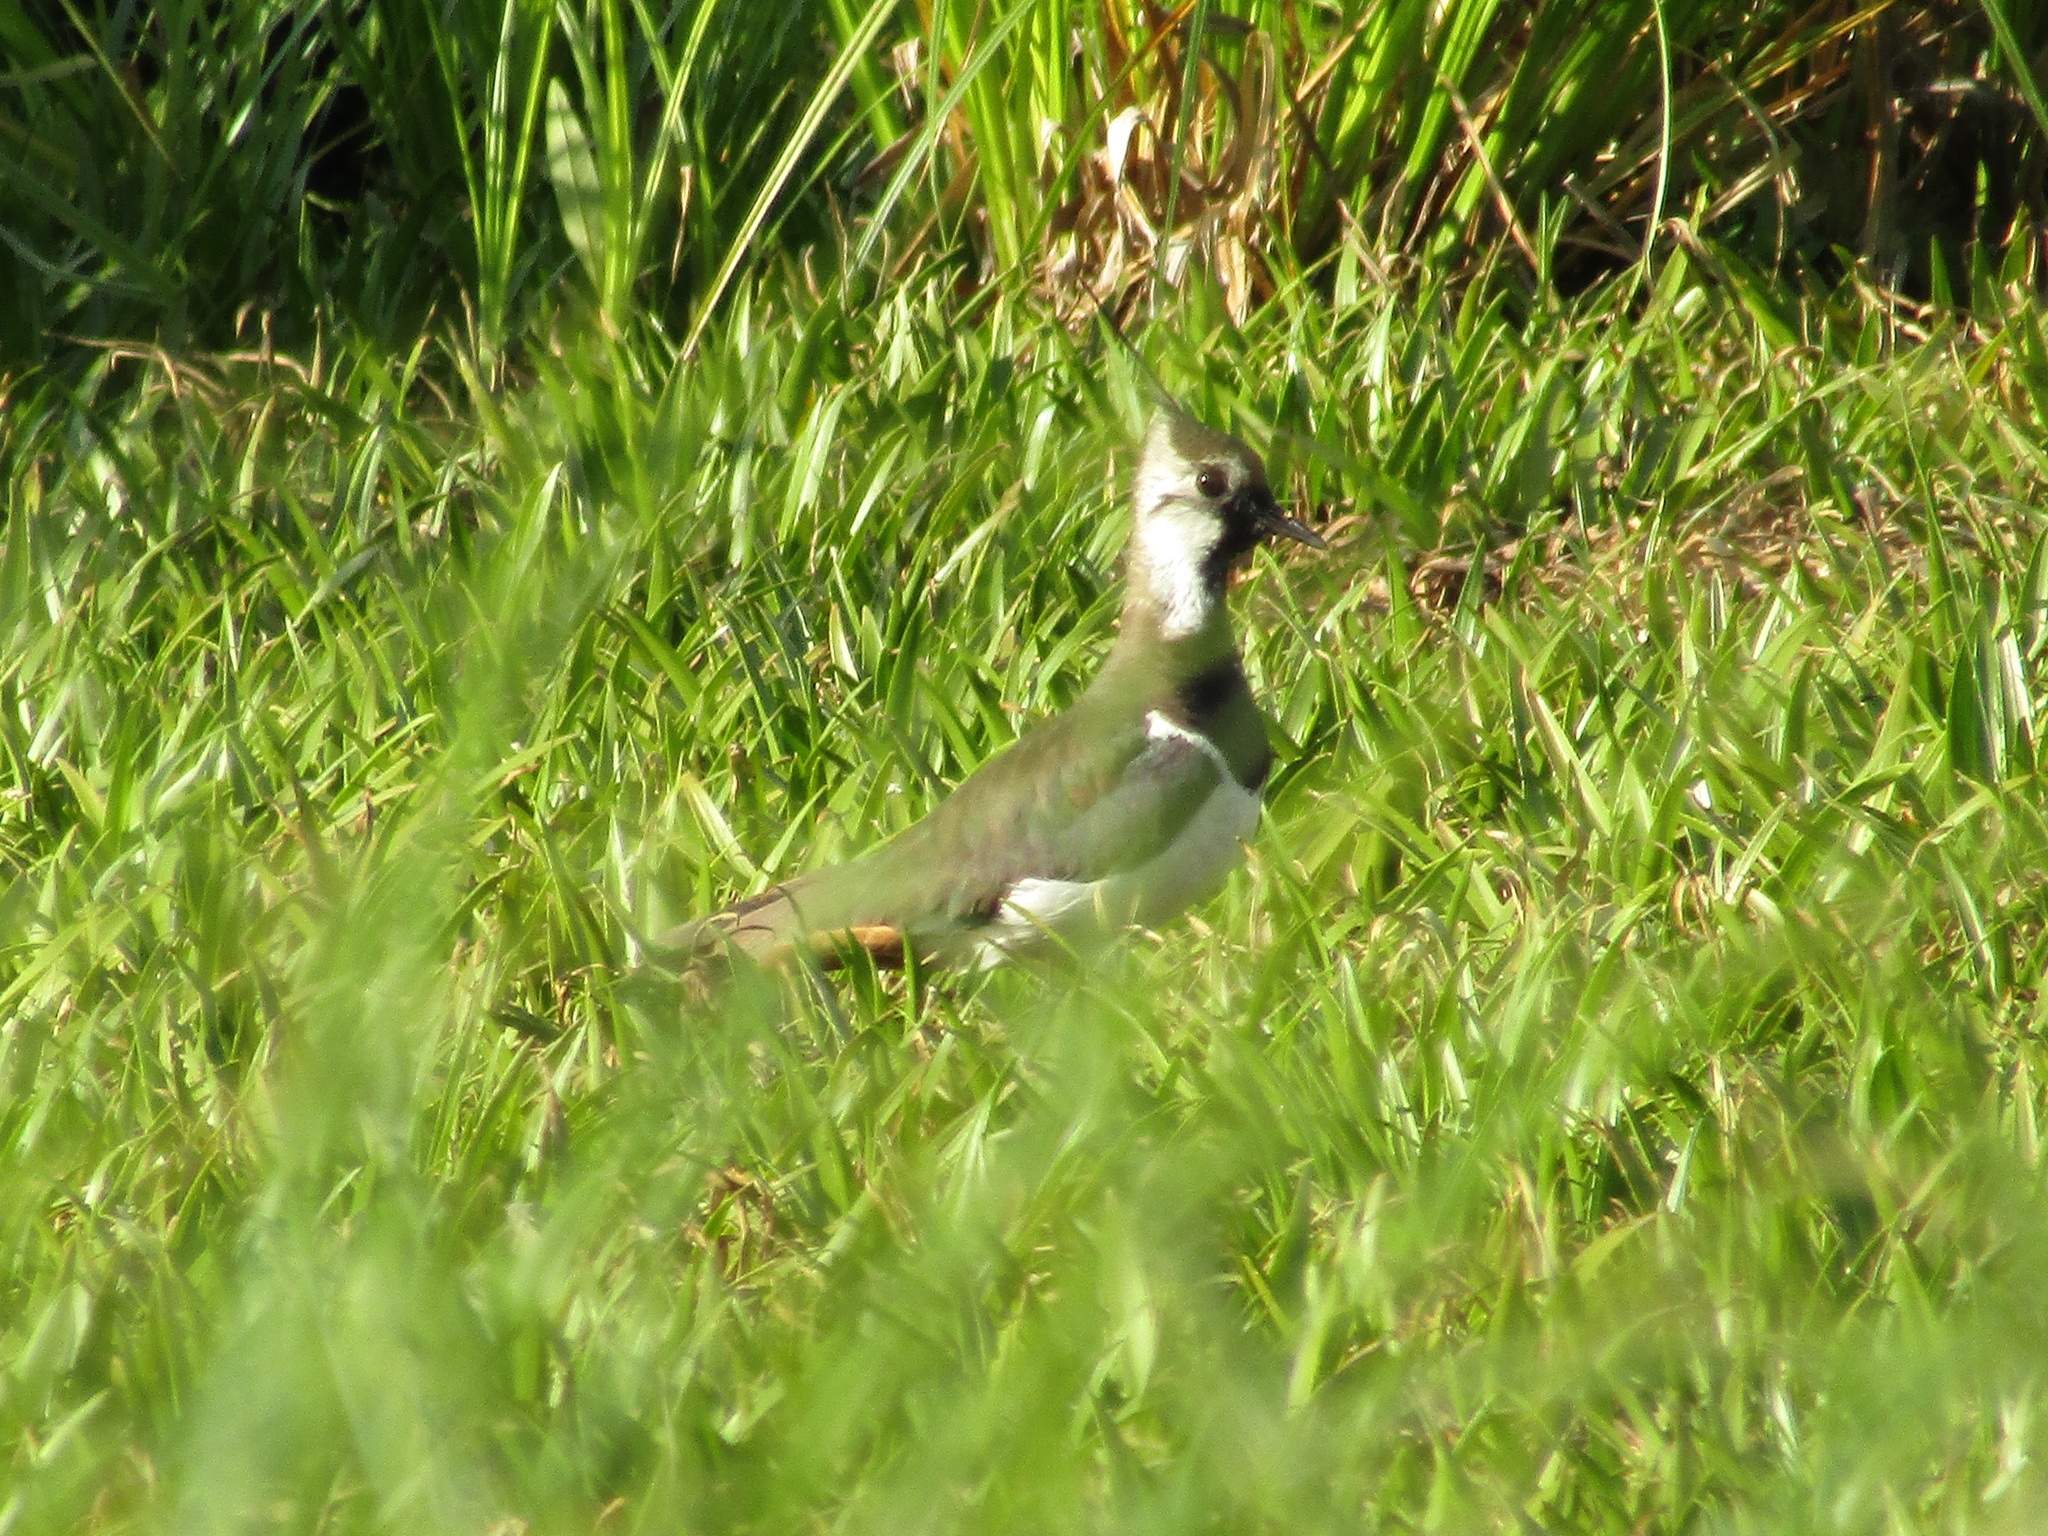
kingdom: Animalia
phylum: Chordata
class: Aves
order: Charadriiformes
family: Charadriidae
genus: Vanellus
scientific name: Vanellus vanellus
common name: Northern lapwing
